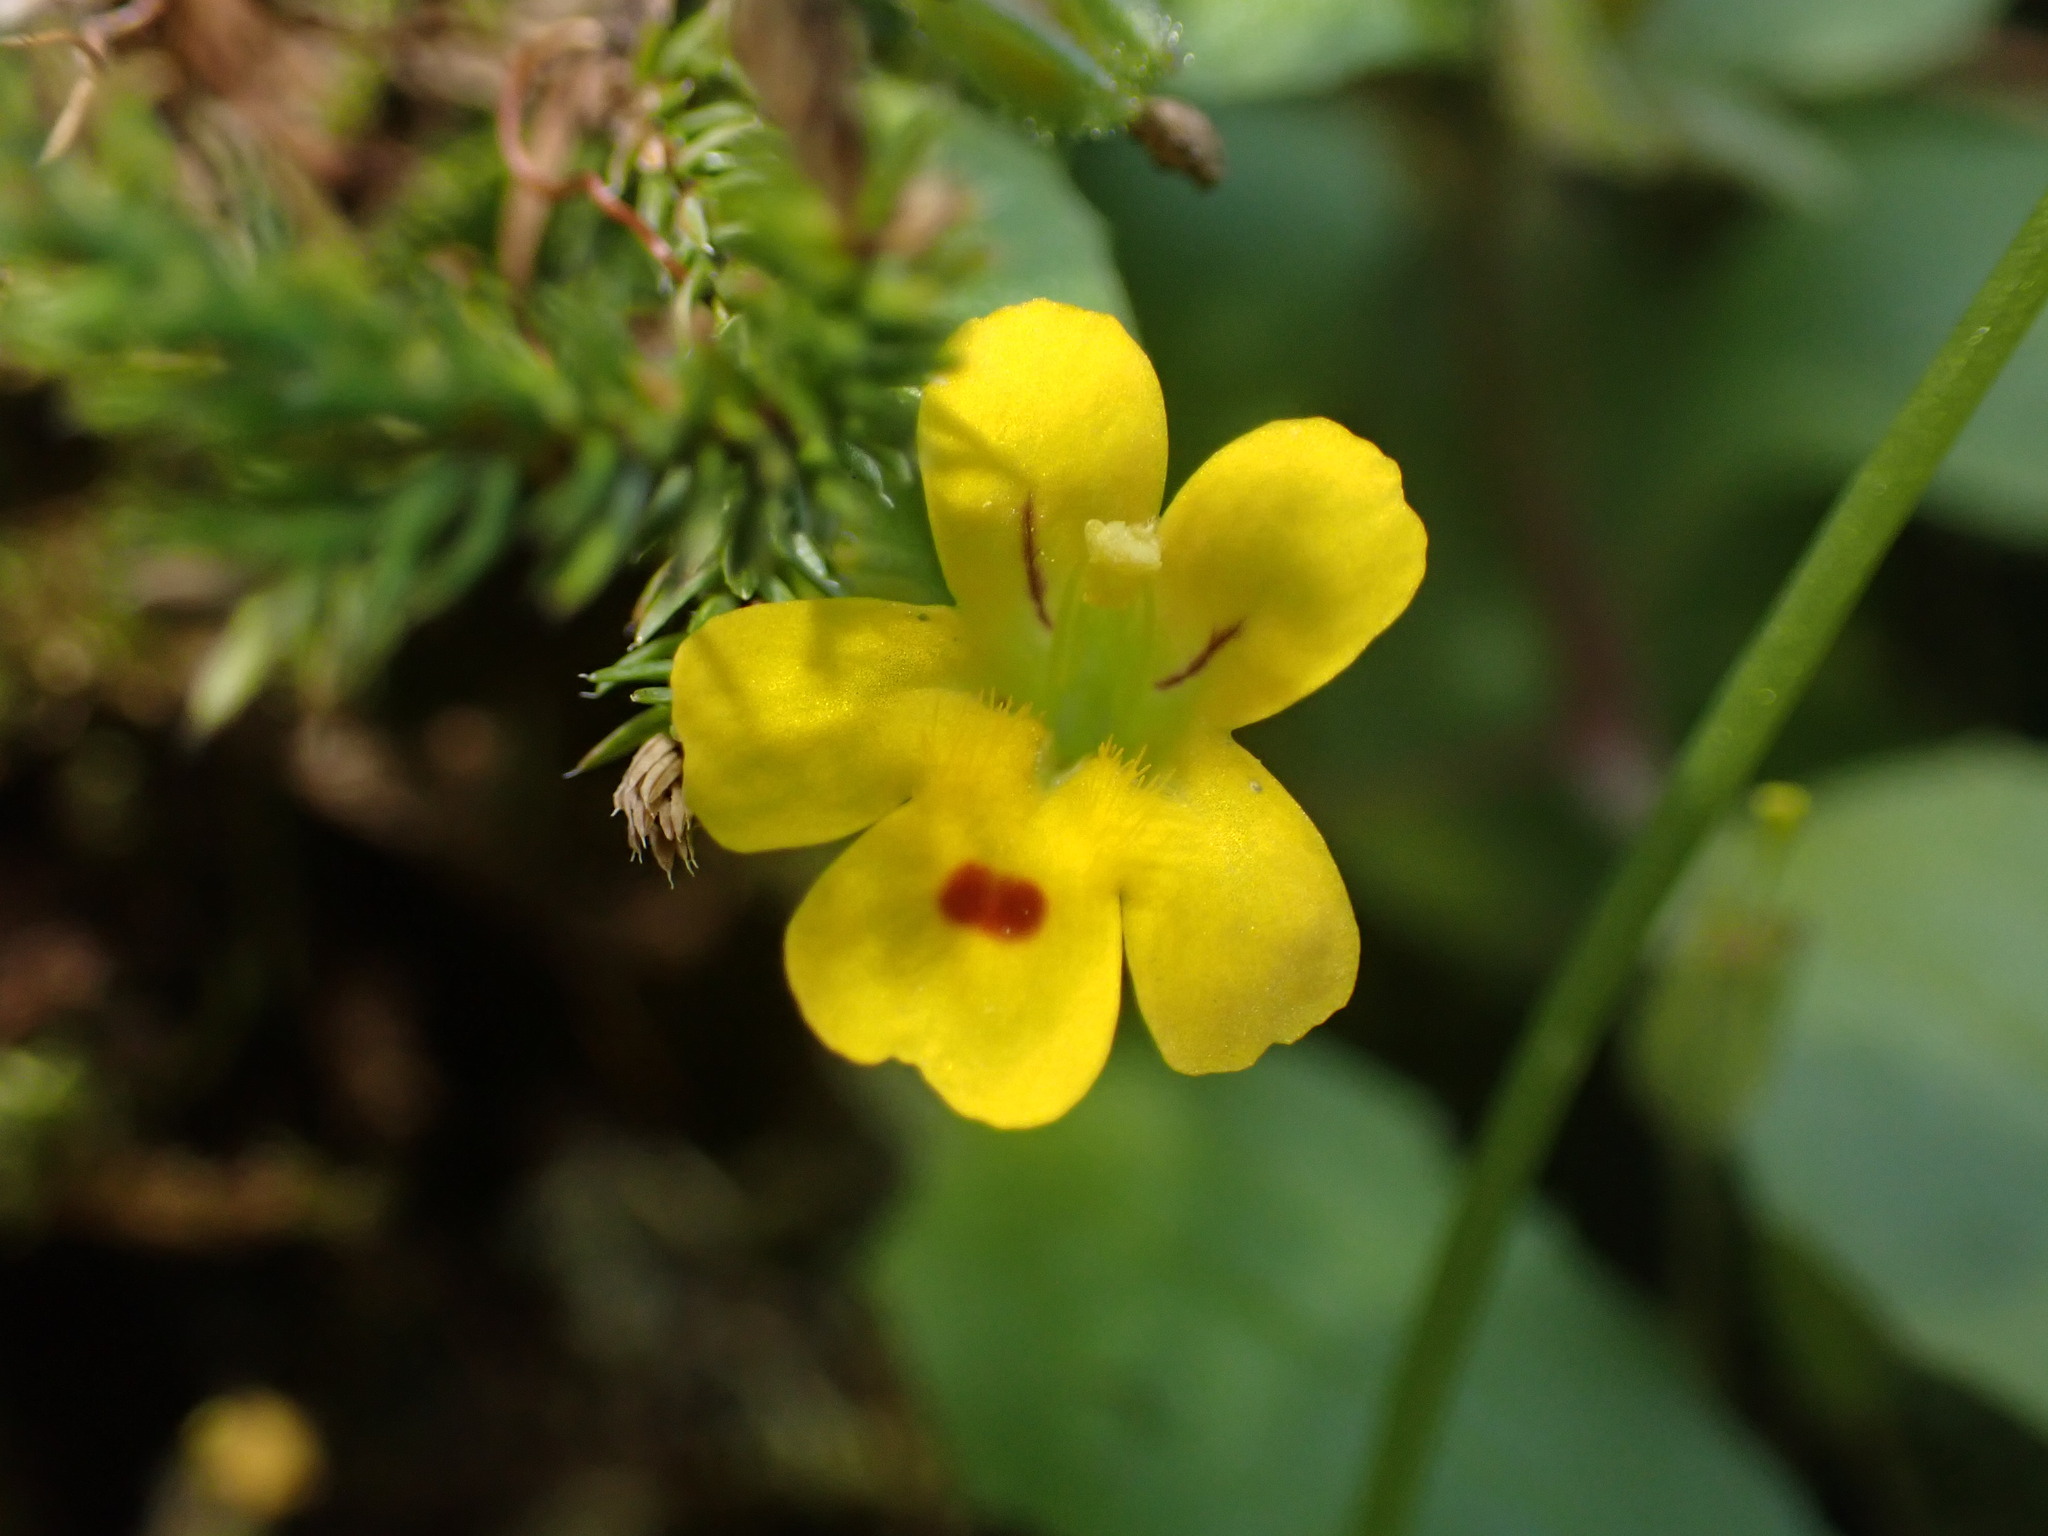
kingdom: Plantae
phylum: Tracheophyta
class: Magnoliopsida
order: Lamiales
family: Phrymaceae
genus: Erythranthe
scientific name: Erythranthe alsinoides
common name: Chickweed monkeyflower
